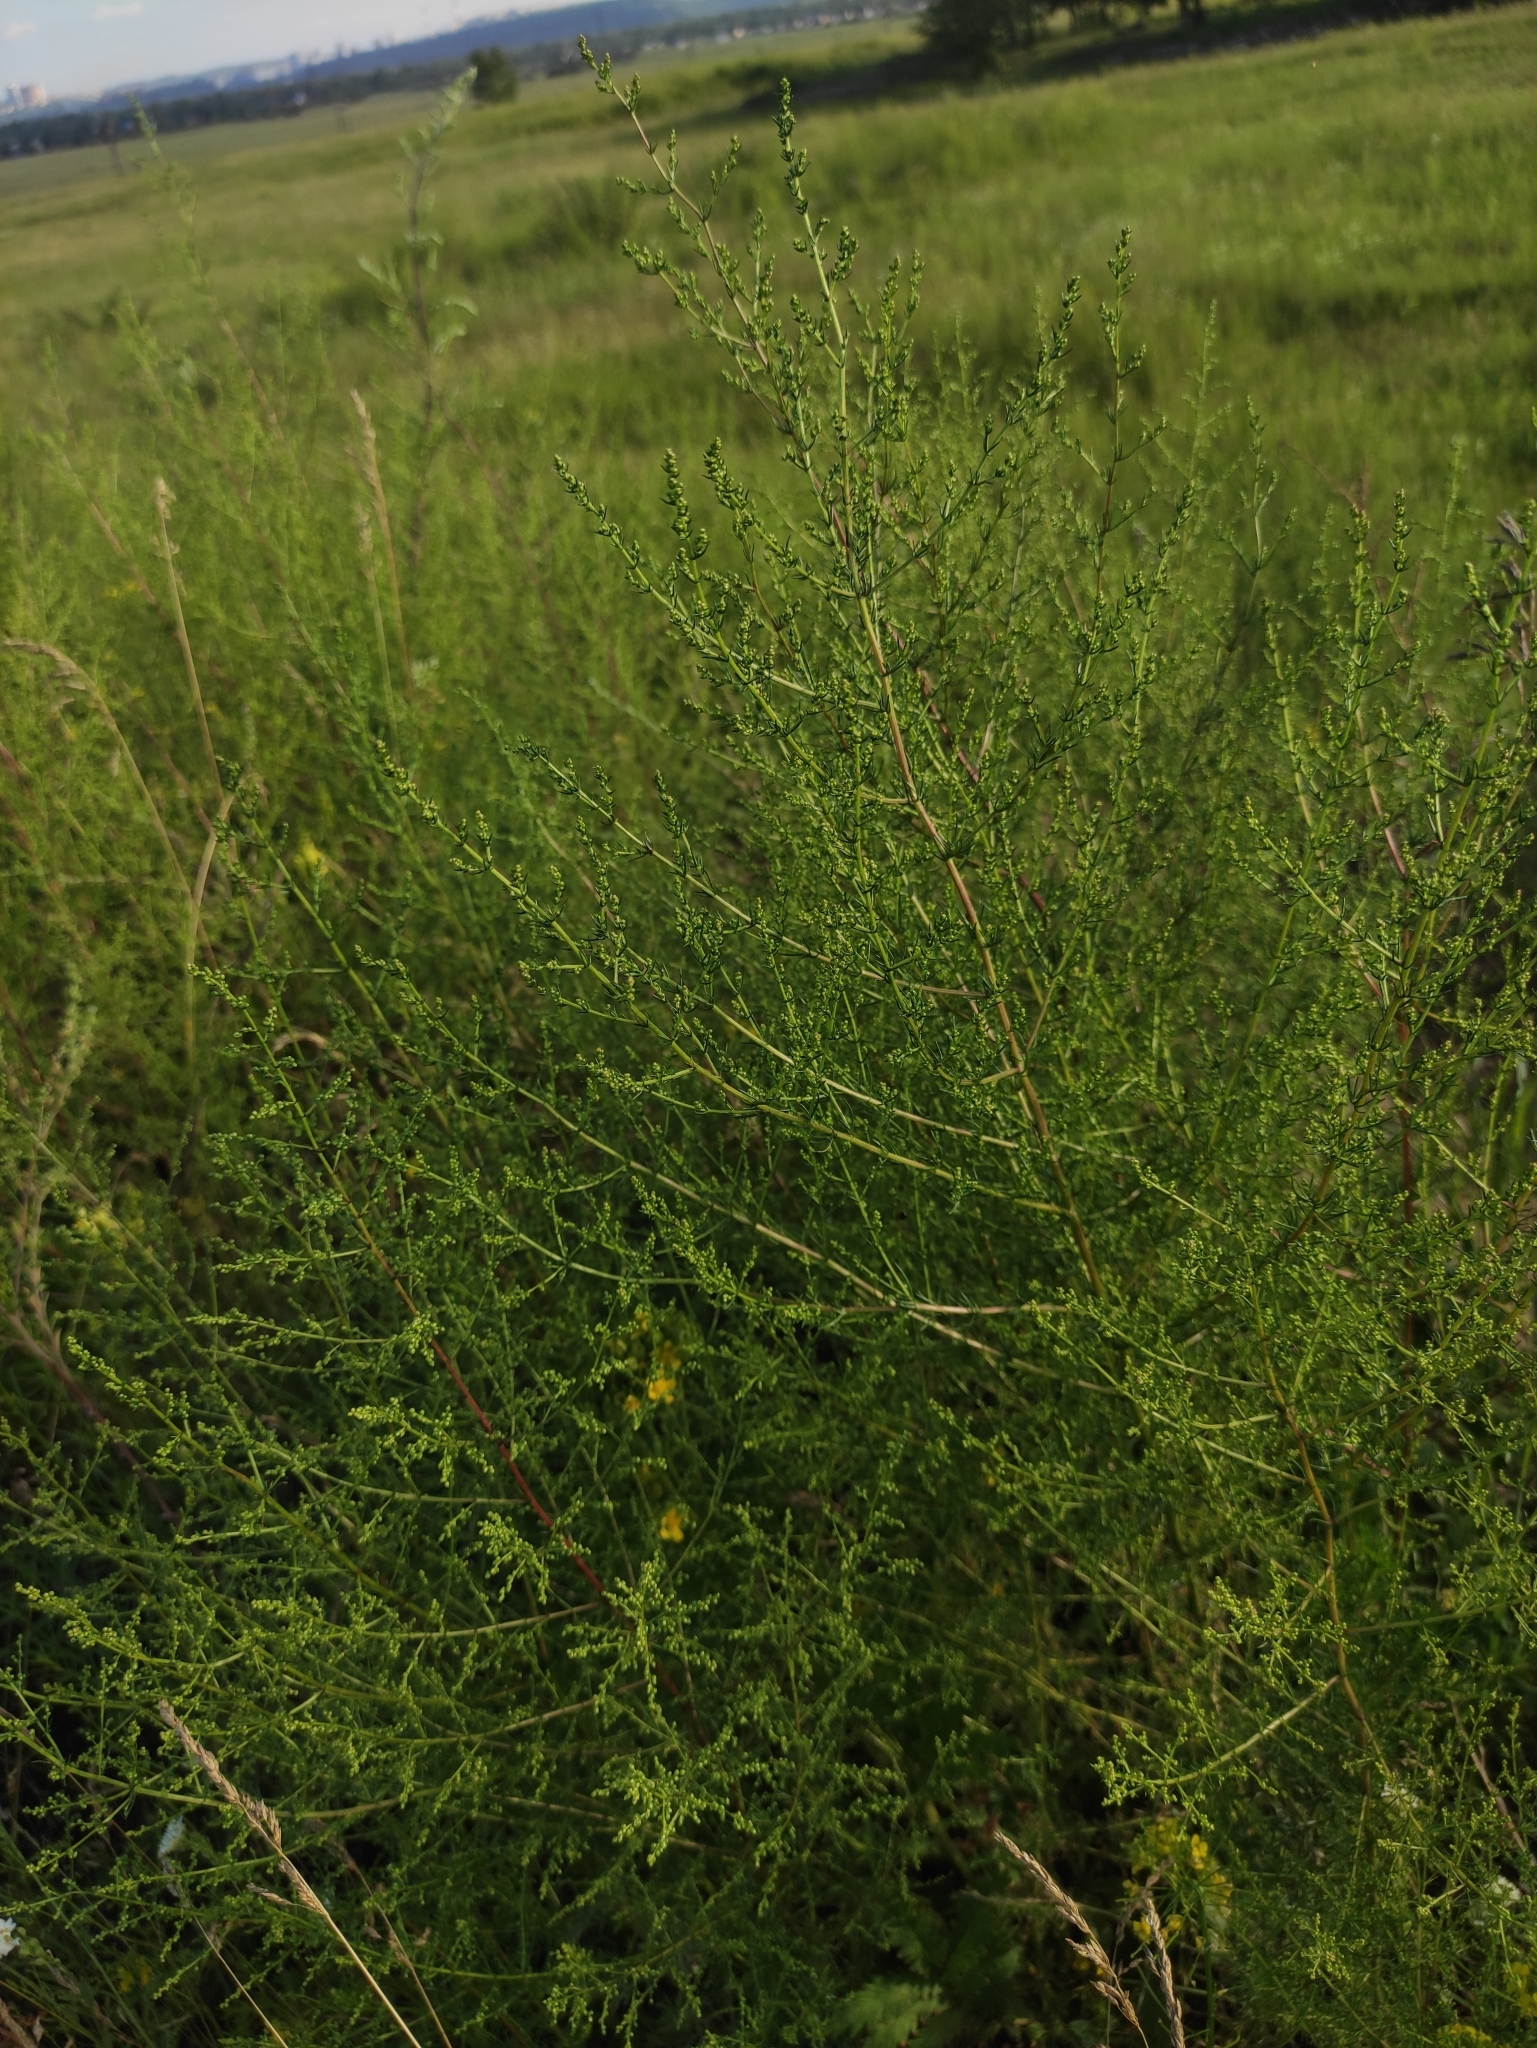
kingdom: Plantae
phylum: Tracheophyta
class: Magnoliopsida
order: Asterales
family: Asteraceae
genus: Artemisia
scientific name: Artemisia scoparia
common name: Redstem wormwood
